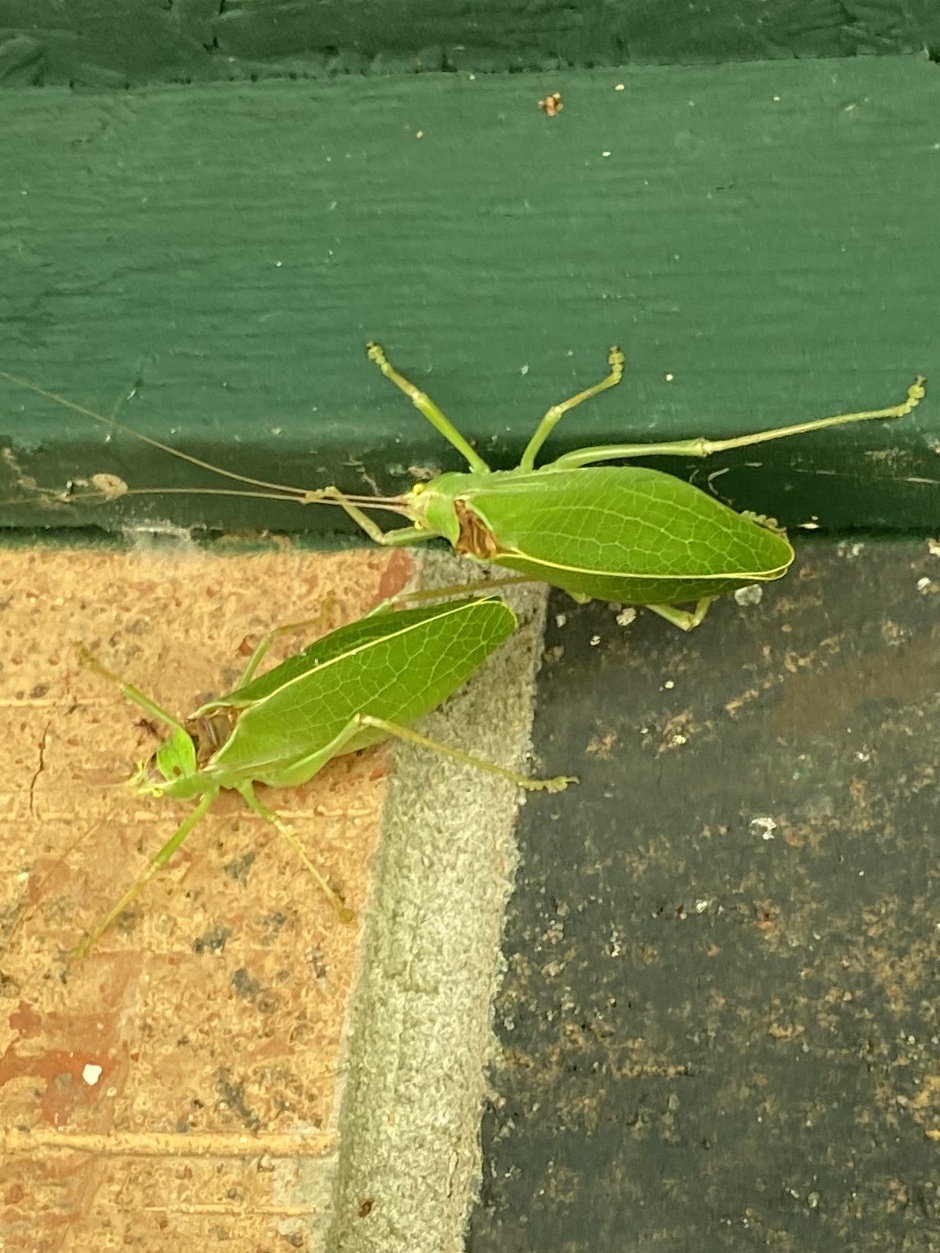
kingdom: Animalia
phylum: Arthropoda
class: Insecta
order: Orthoptera
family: Tettigoniidae
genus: Pterophylla
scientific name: Pterophylla camellifolia
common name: Common true katydid
